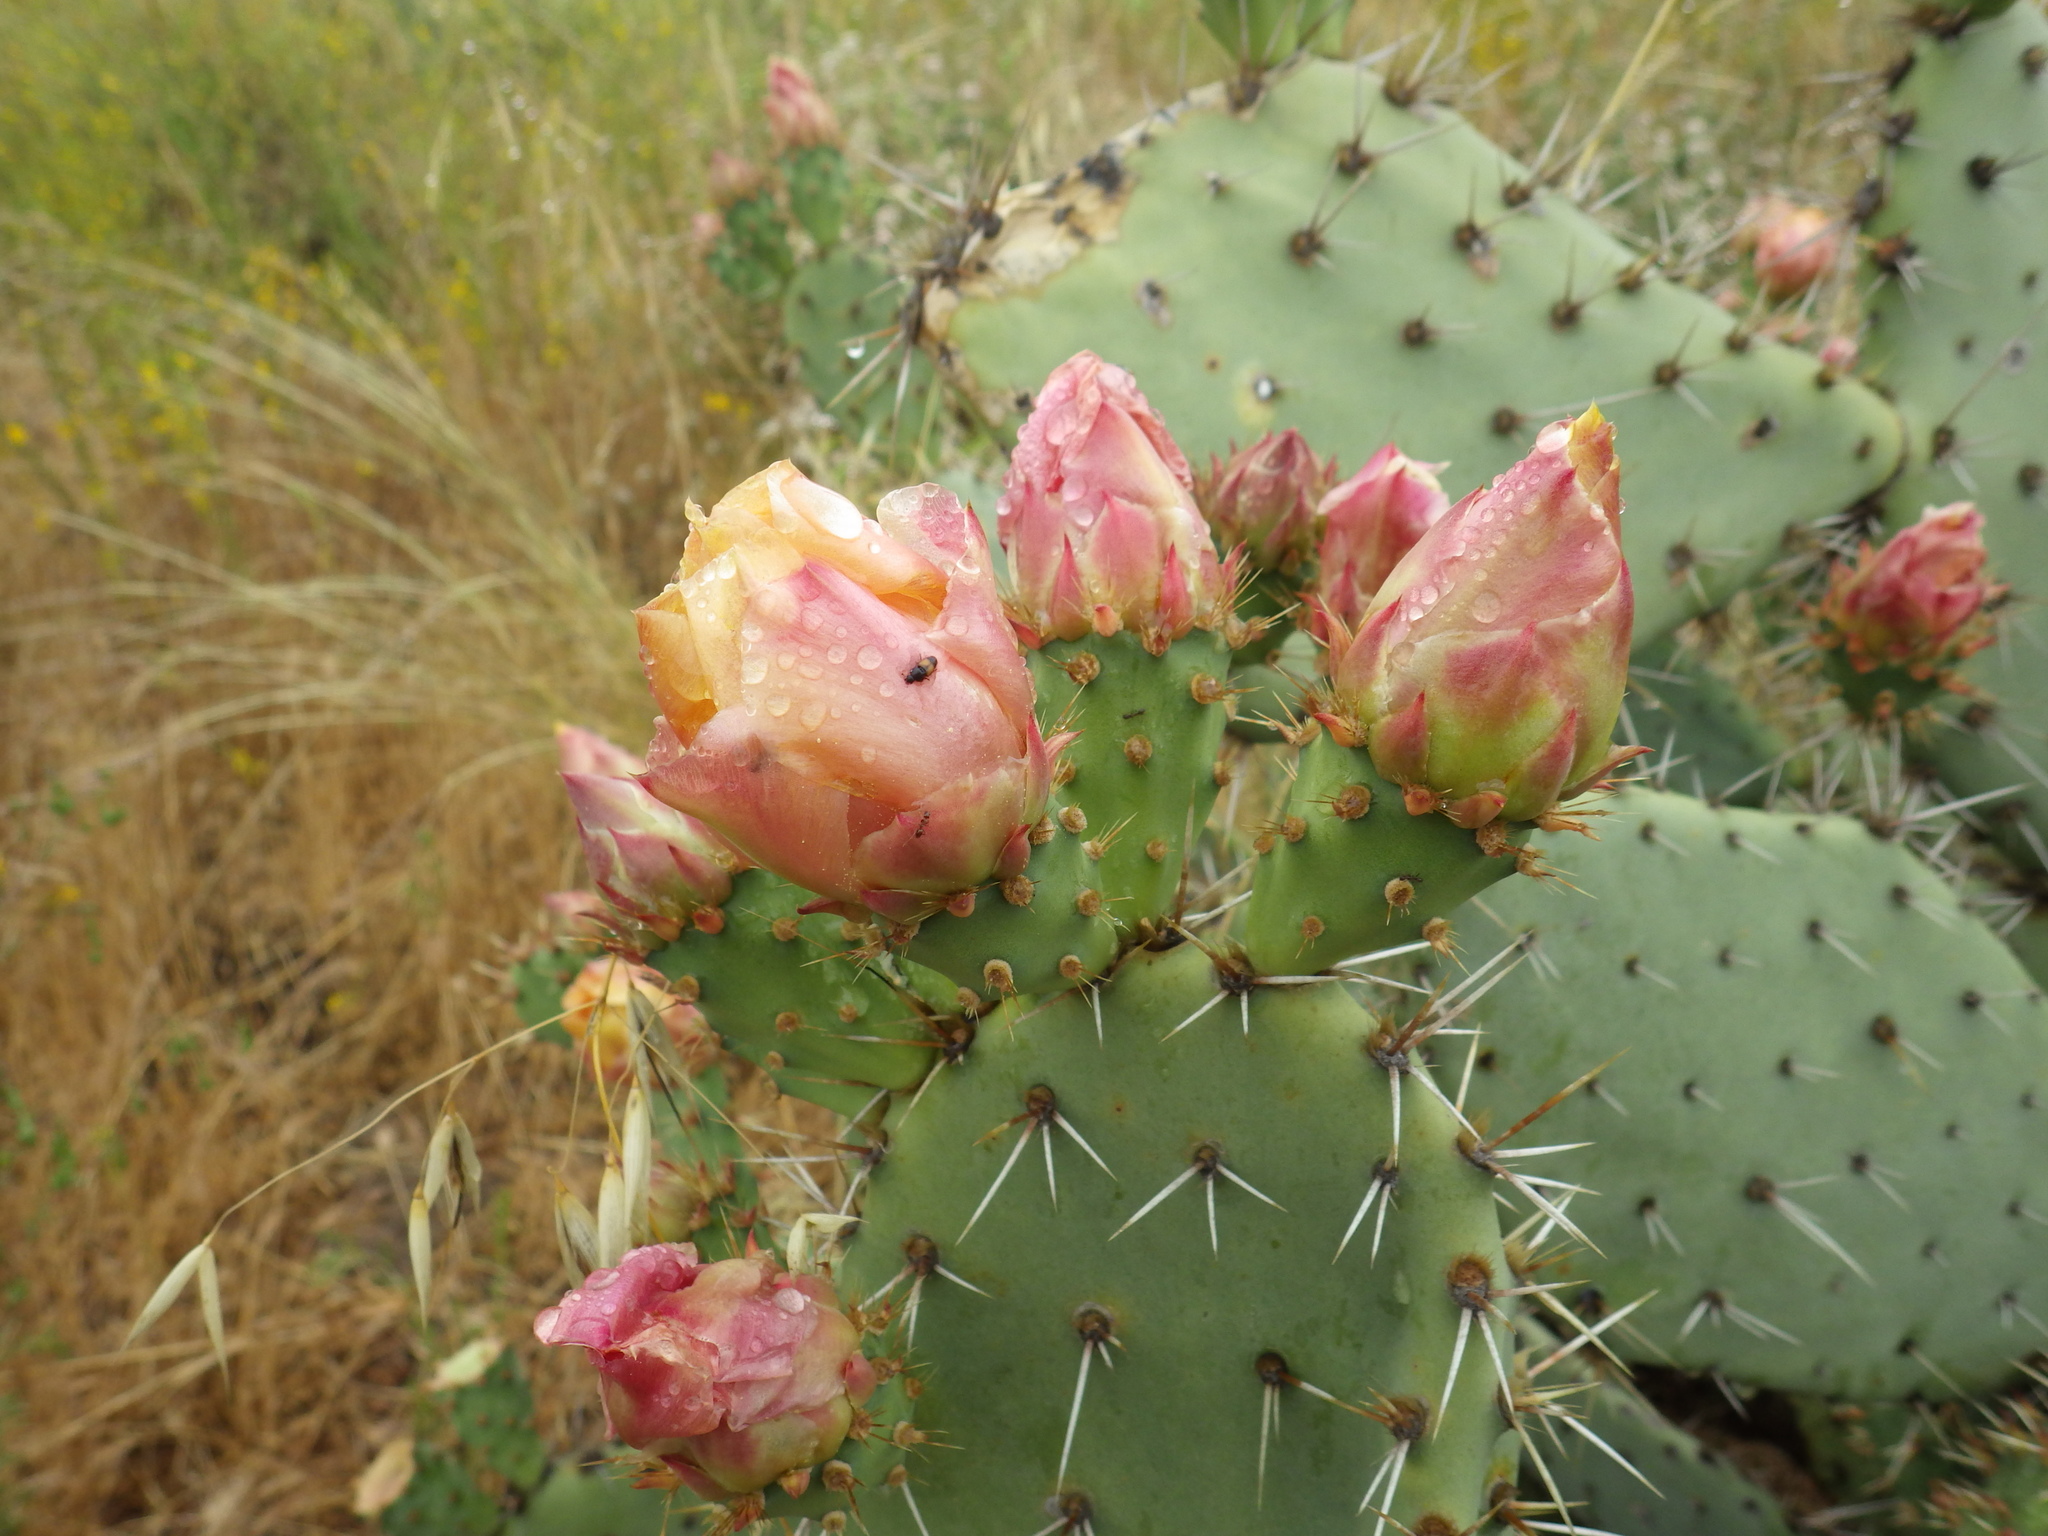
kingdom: Plantae
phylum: Tracheophyta
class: Magnoliopsida
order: Caryophyllales
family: Cactaceae
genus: Opuntia
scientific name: Opuntia littoralis
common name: Coastal prickly-pear
